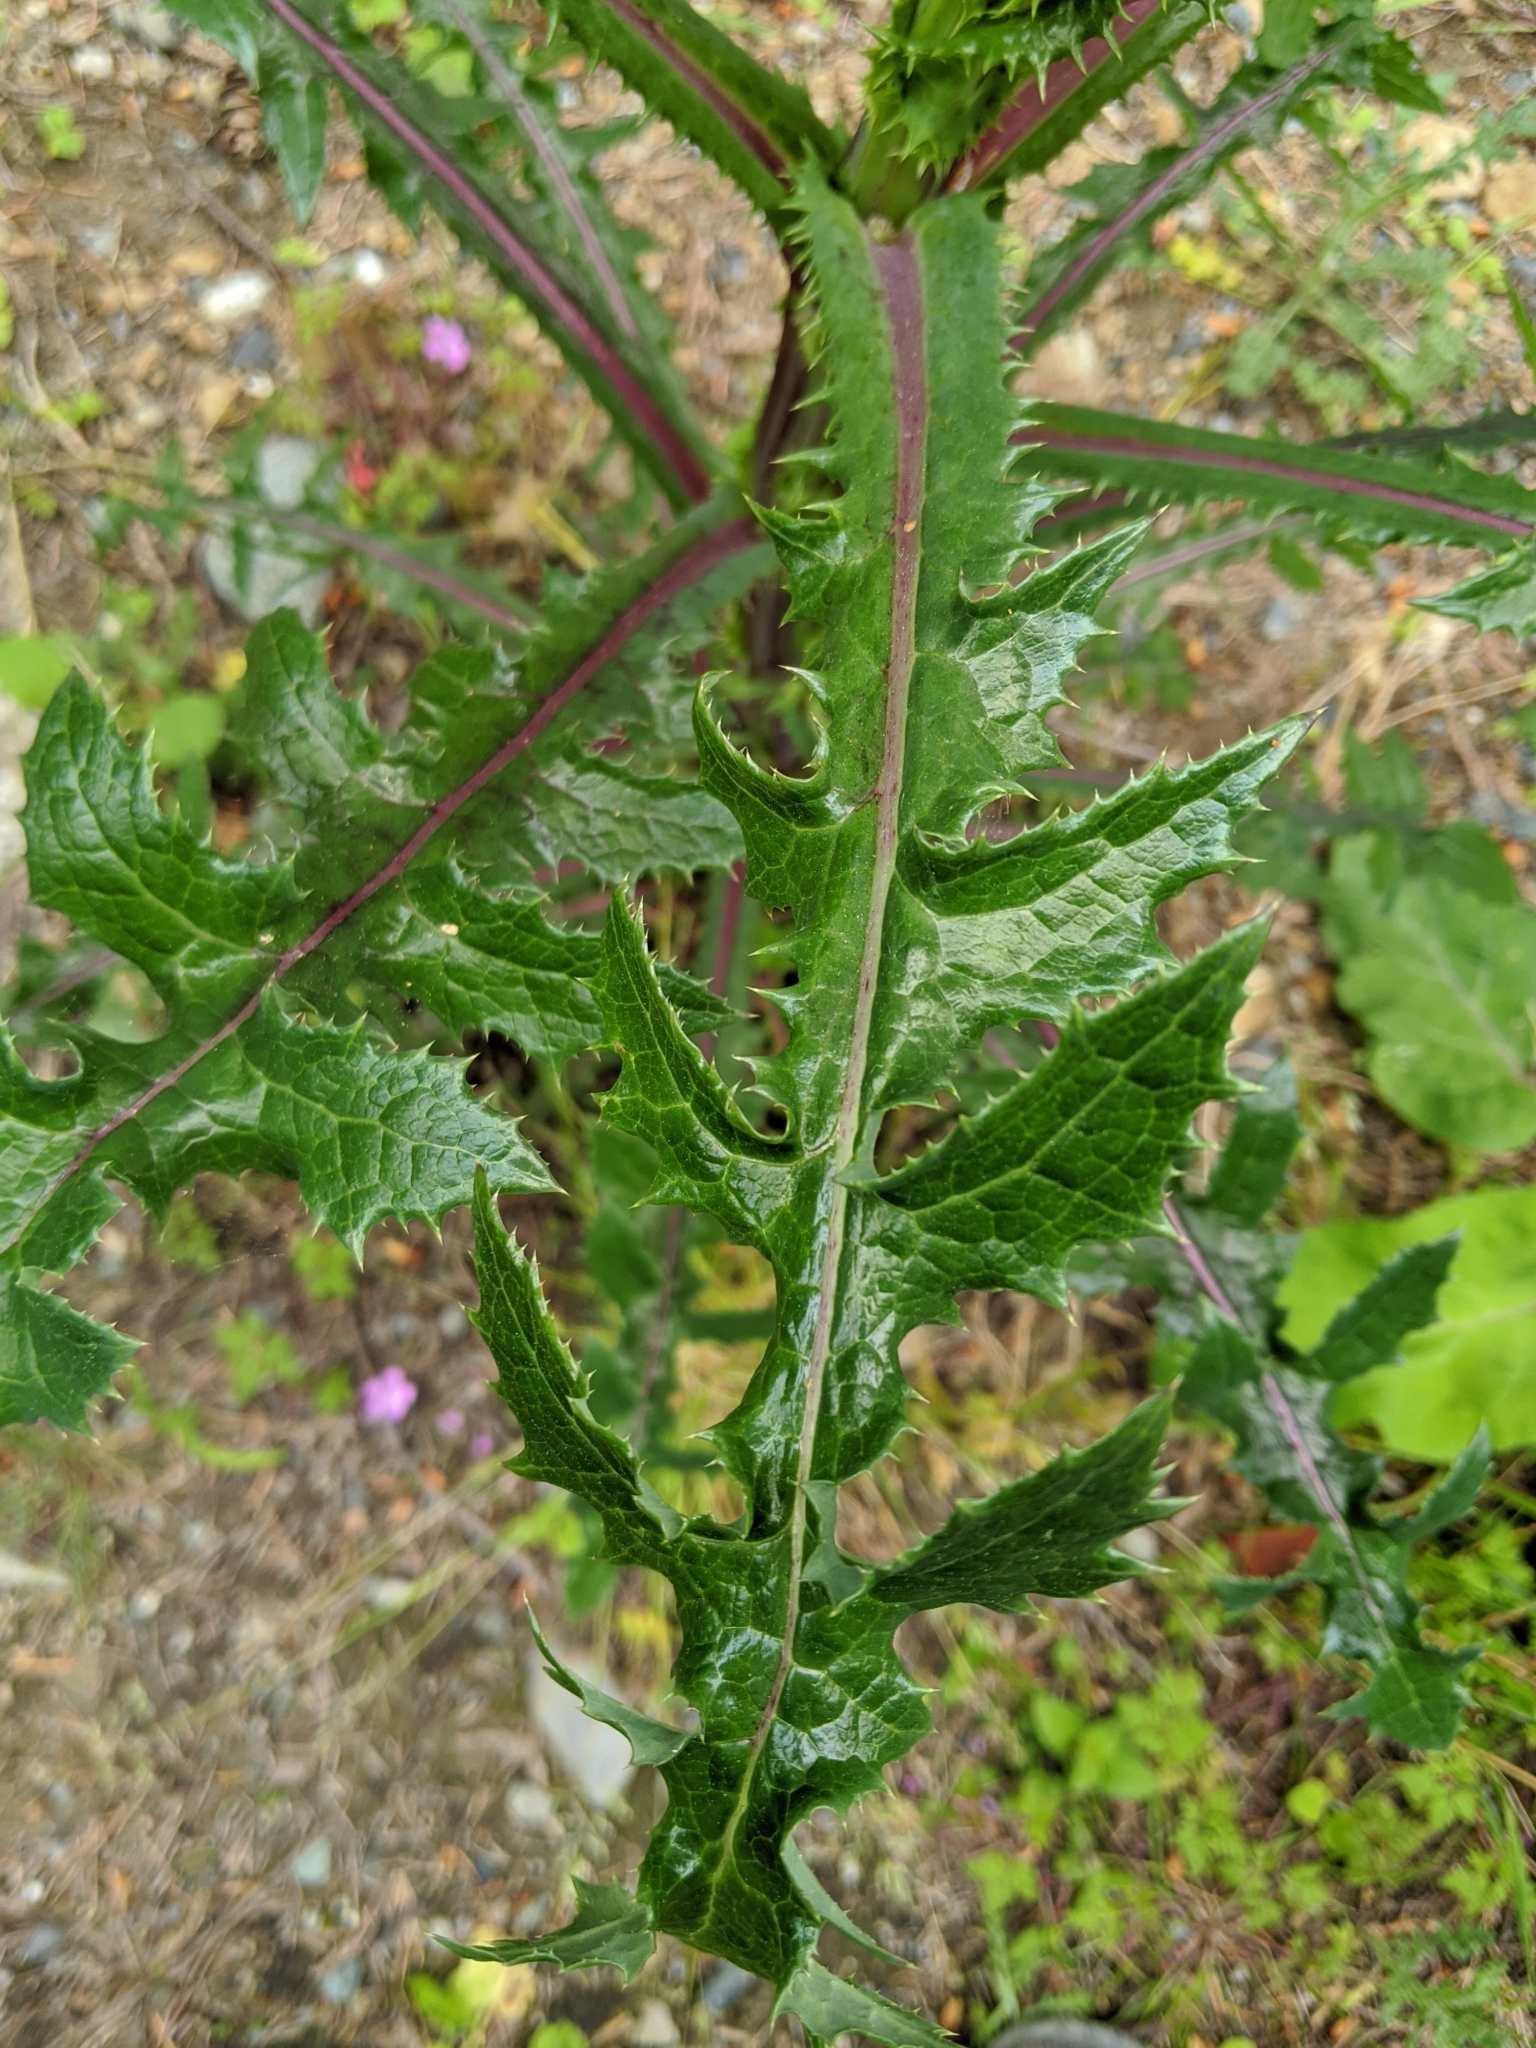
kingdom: Plantae
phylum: Tracheophyta
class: Magnoliopsida
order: Asterales
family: Asteraceae
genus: Sonchus
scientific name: Sonchus asper
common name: Prickly sow-thistle
